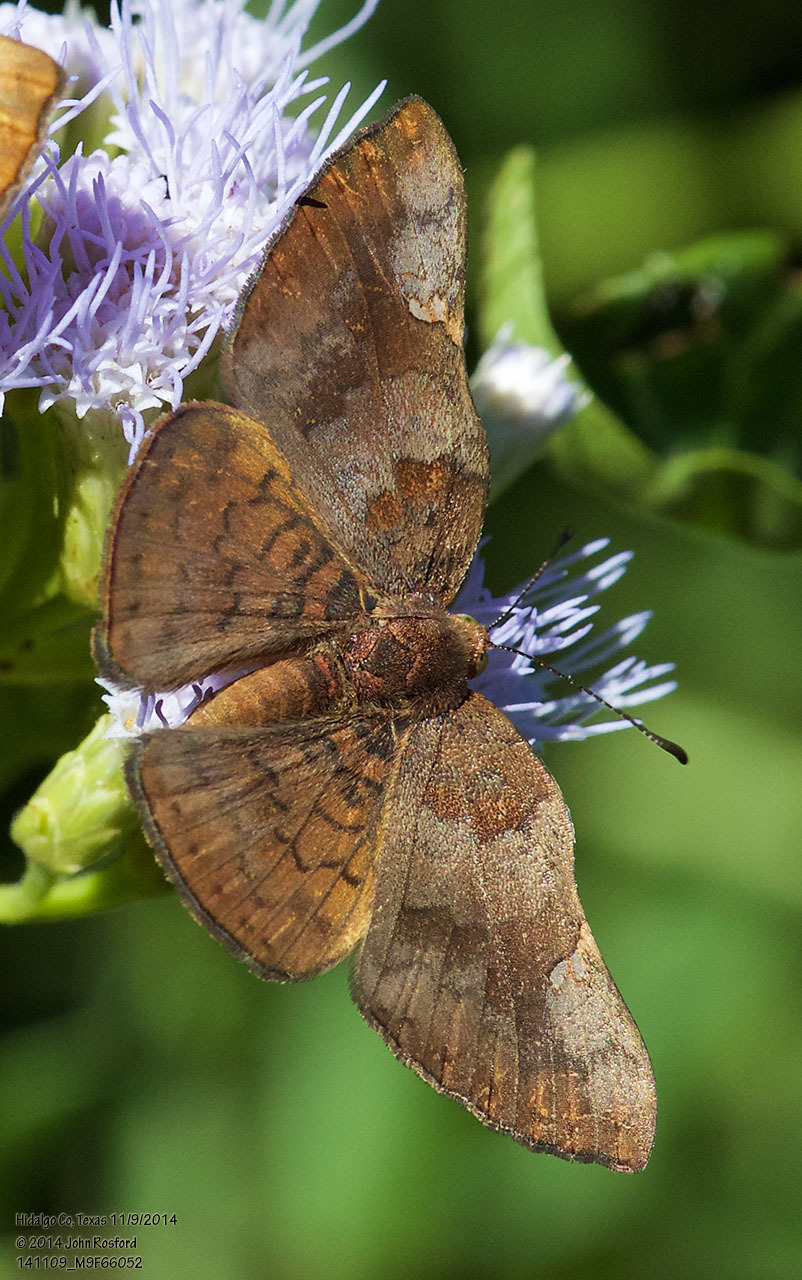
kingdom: Animalia
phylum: Arthropoda
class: Insecta
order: Lepidoptera
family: Riodinidae
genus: Curvie
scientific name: Curvie emesia
